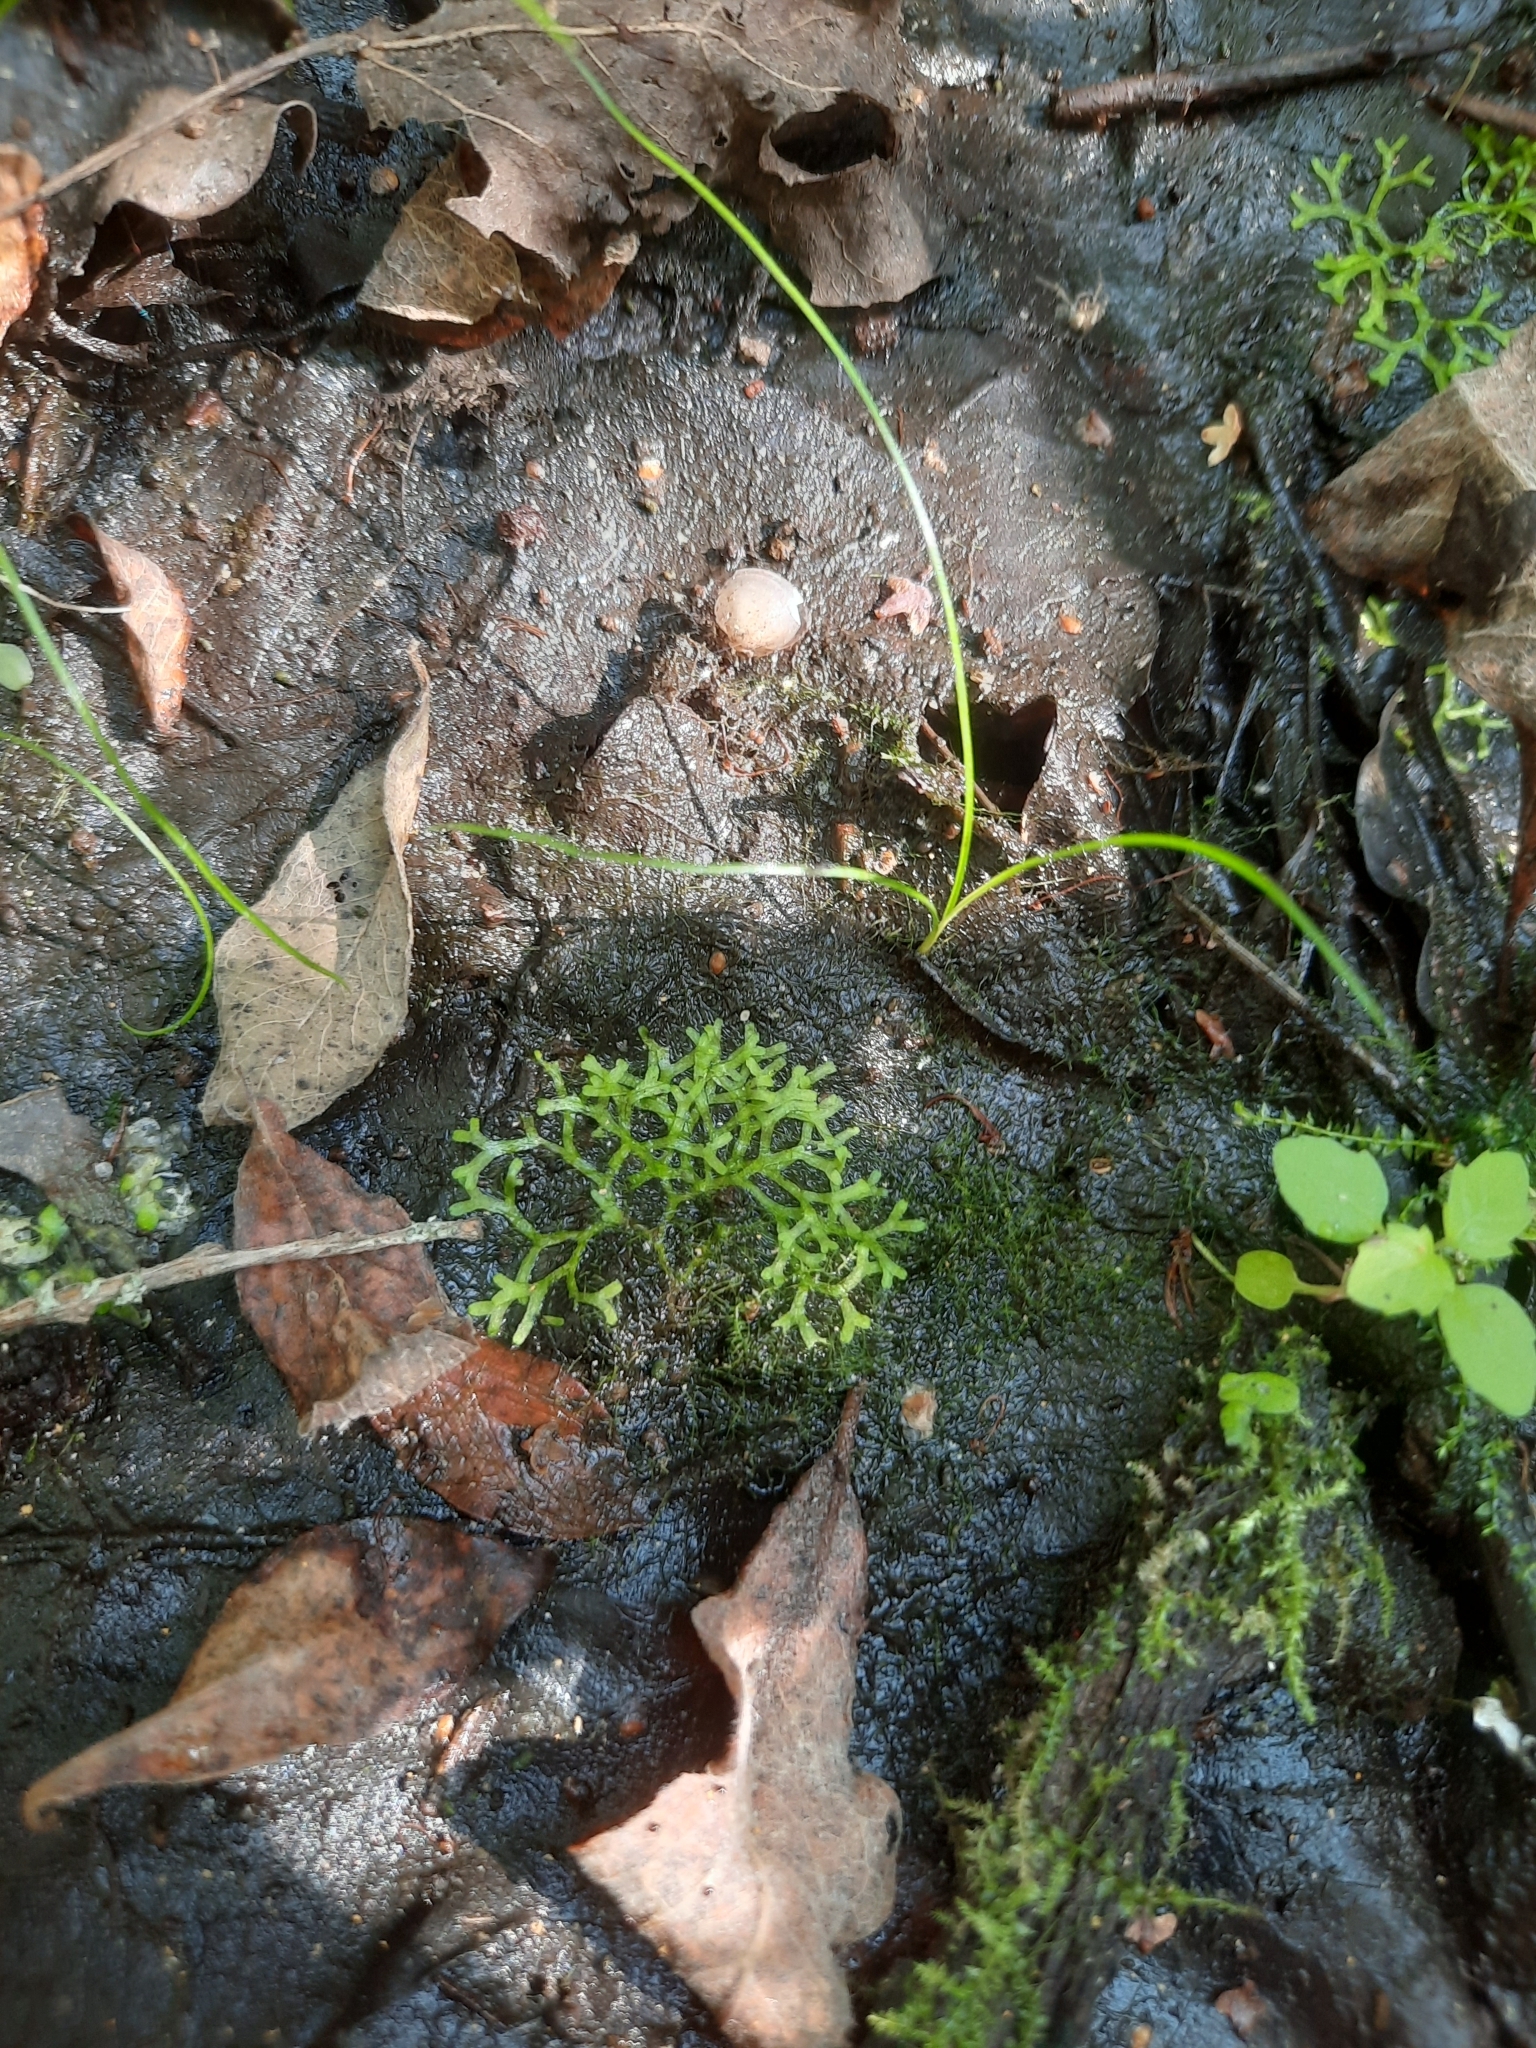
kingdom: Plantae
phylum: Marchantiophyta
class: Marchantiopsida
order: Marchantiales
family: Ricciaceae
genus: Riccia
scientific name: Riccia fluitans
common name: Floating crystalwort
